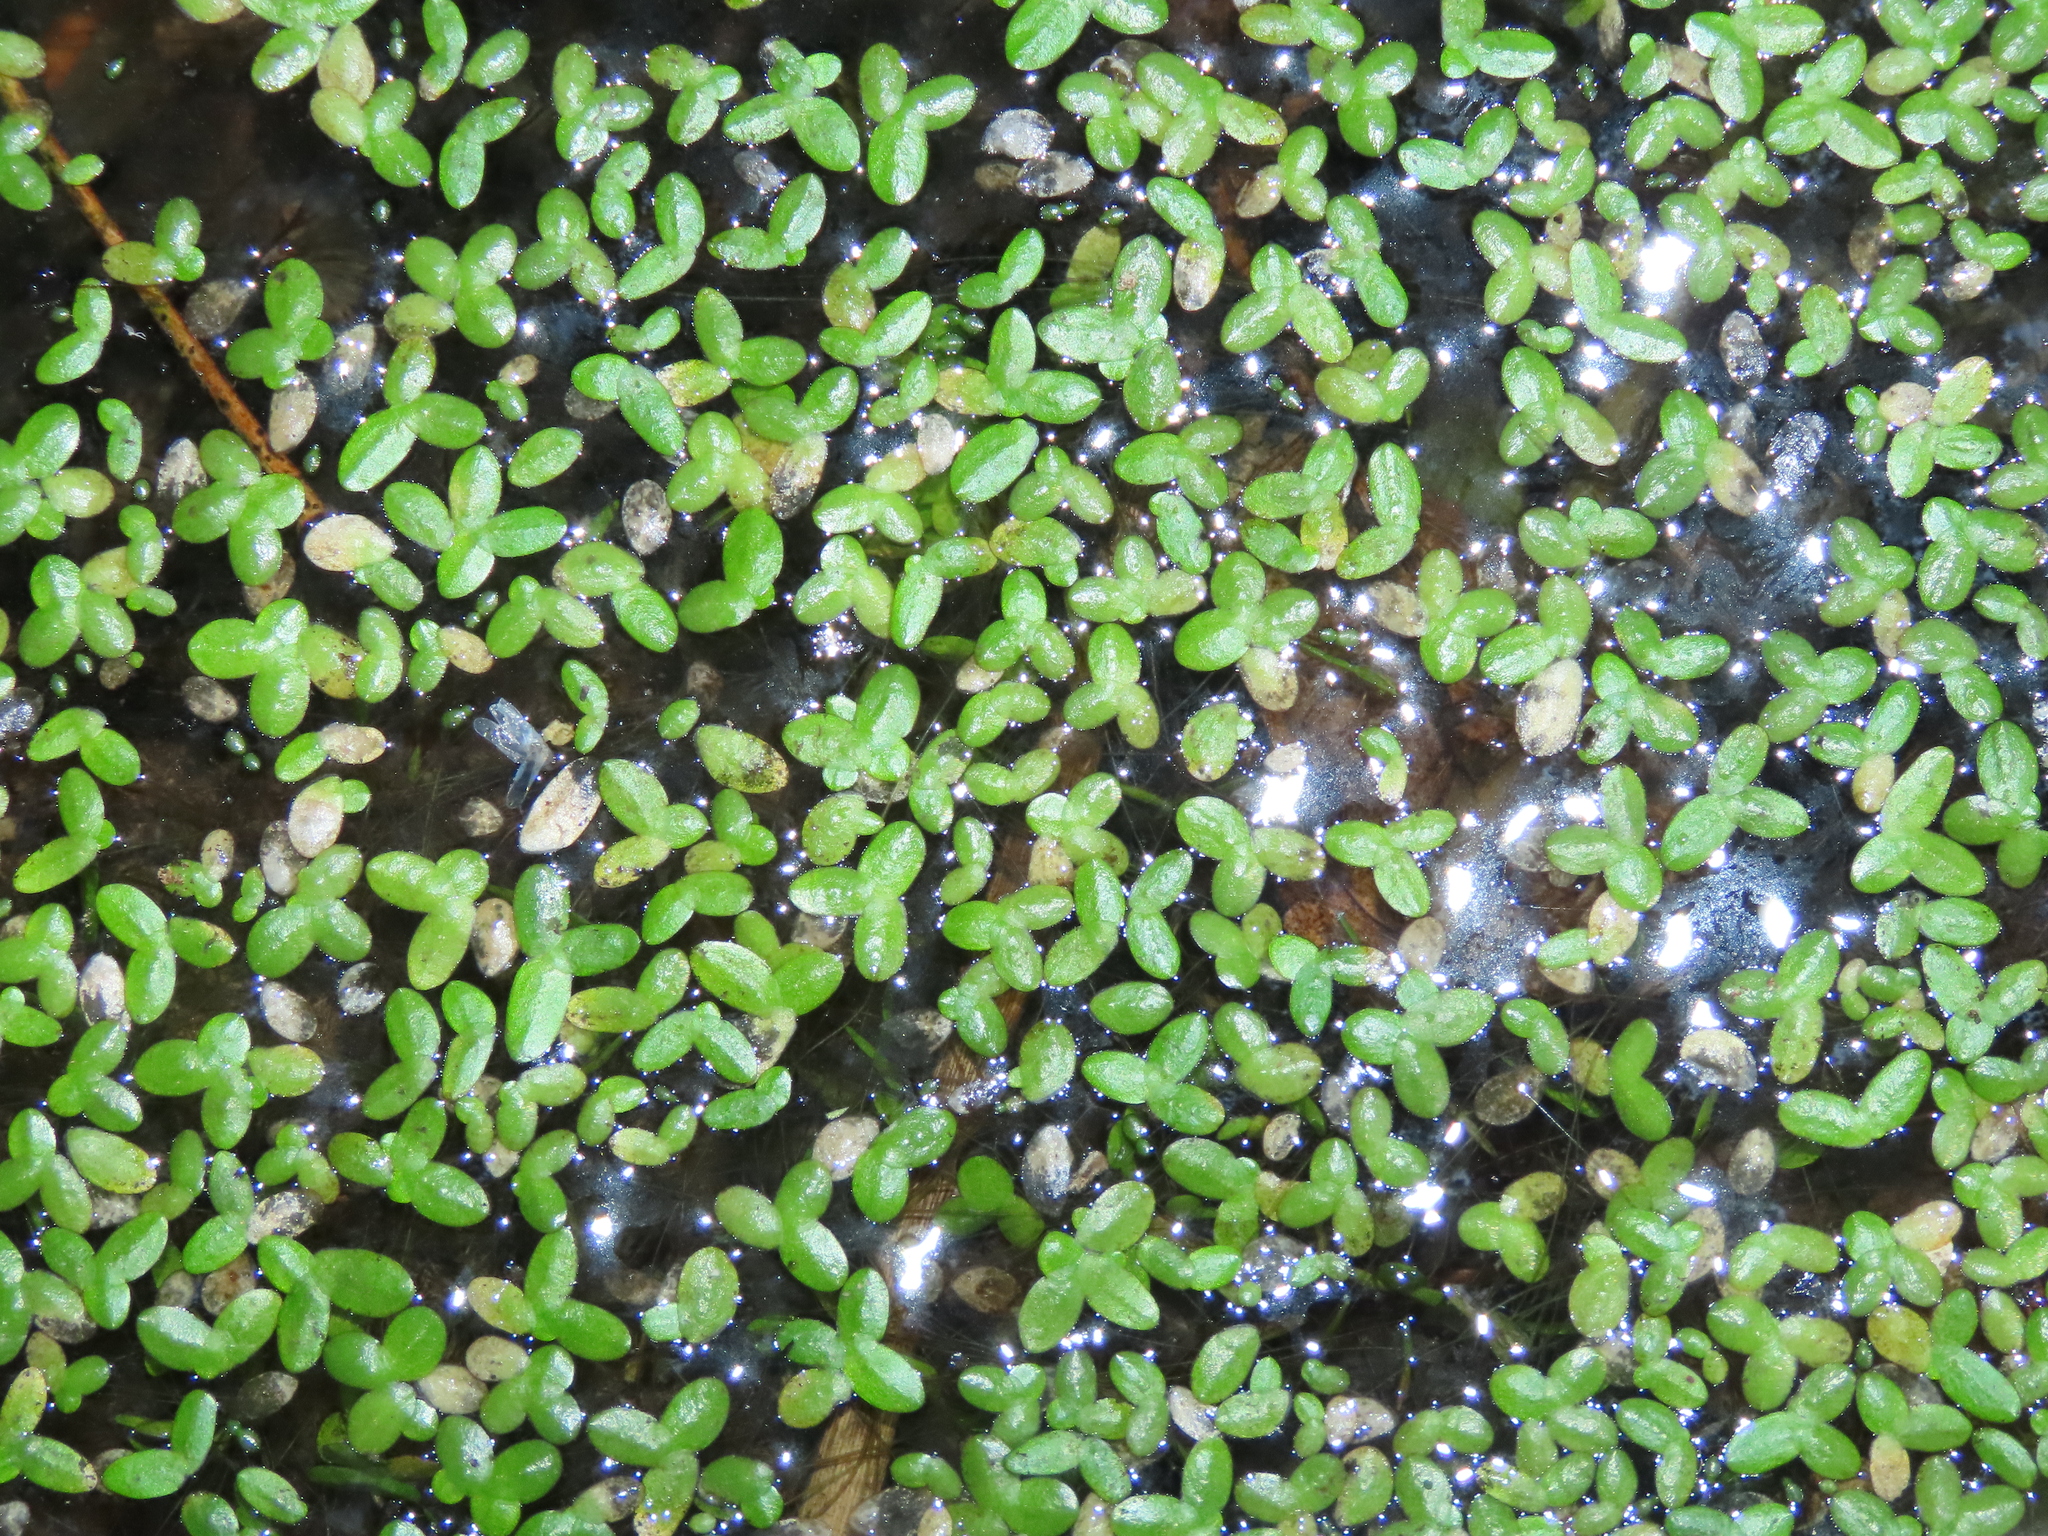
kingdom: Plantae
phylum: Tracheophyta
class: Liliopsida
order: Alismatales
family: Araceae
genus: Lemna
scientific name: Lemna aequinoctialis
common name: Duckweed
